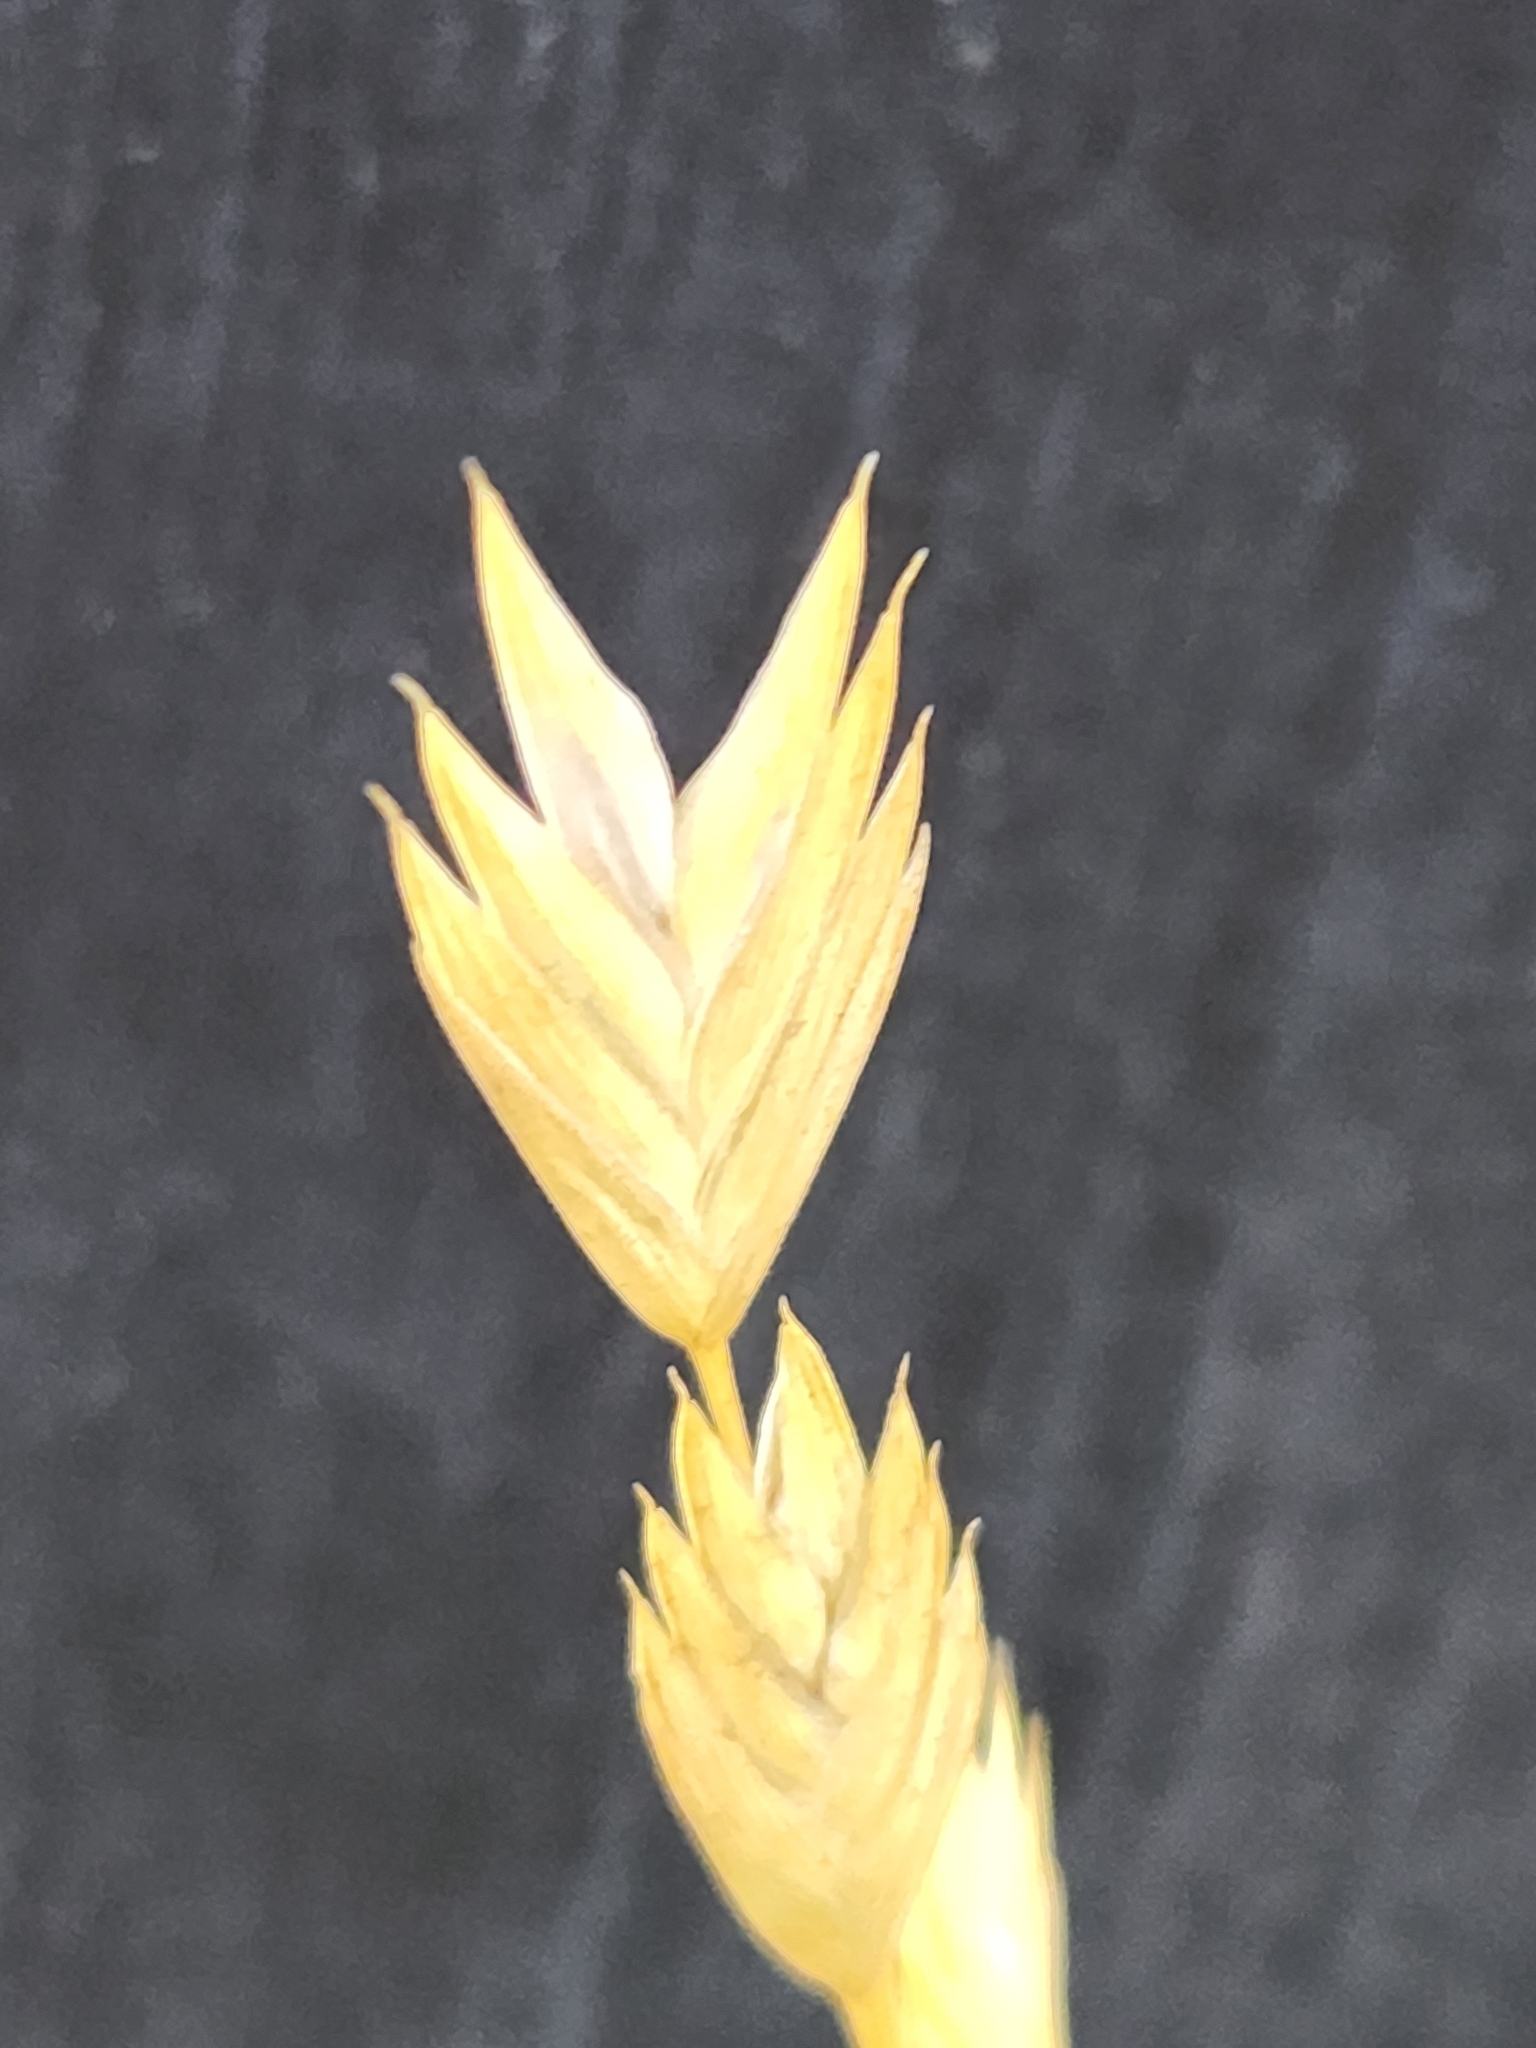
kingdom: Plantae
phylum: Tracheophyta
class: Liliopsida
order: Poales
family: Poaceae
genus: Bromus
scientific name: Bromus catharticus
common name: Rescuegrass
